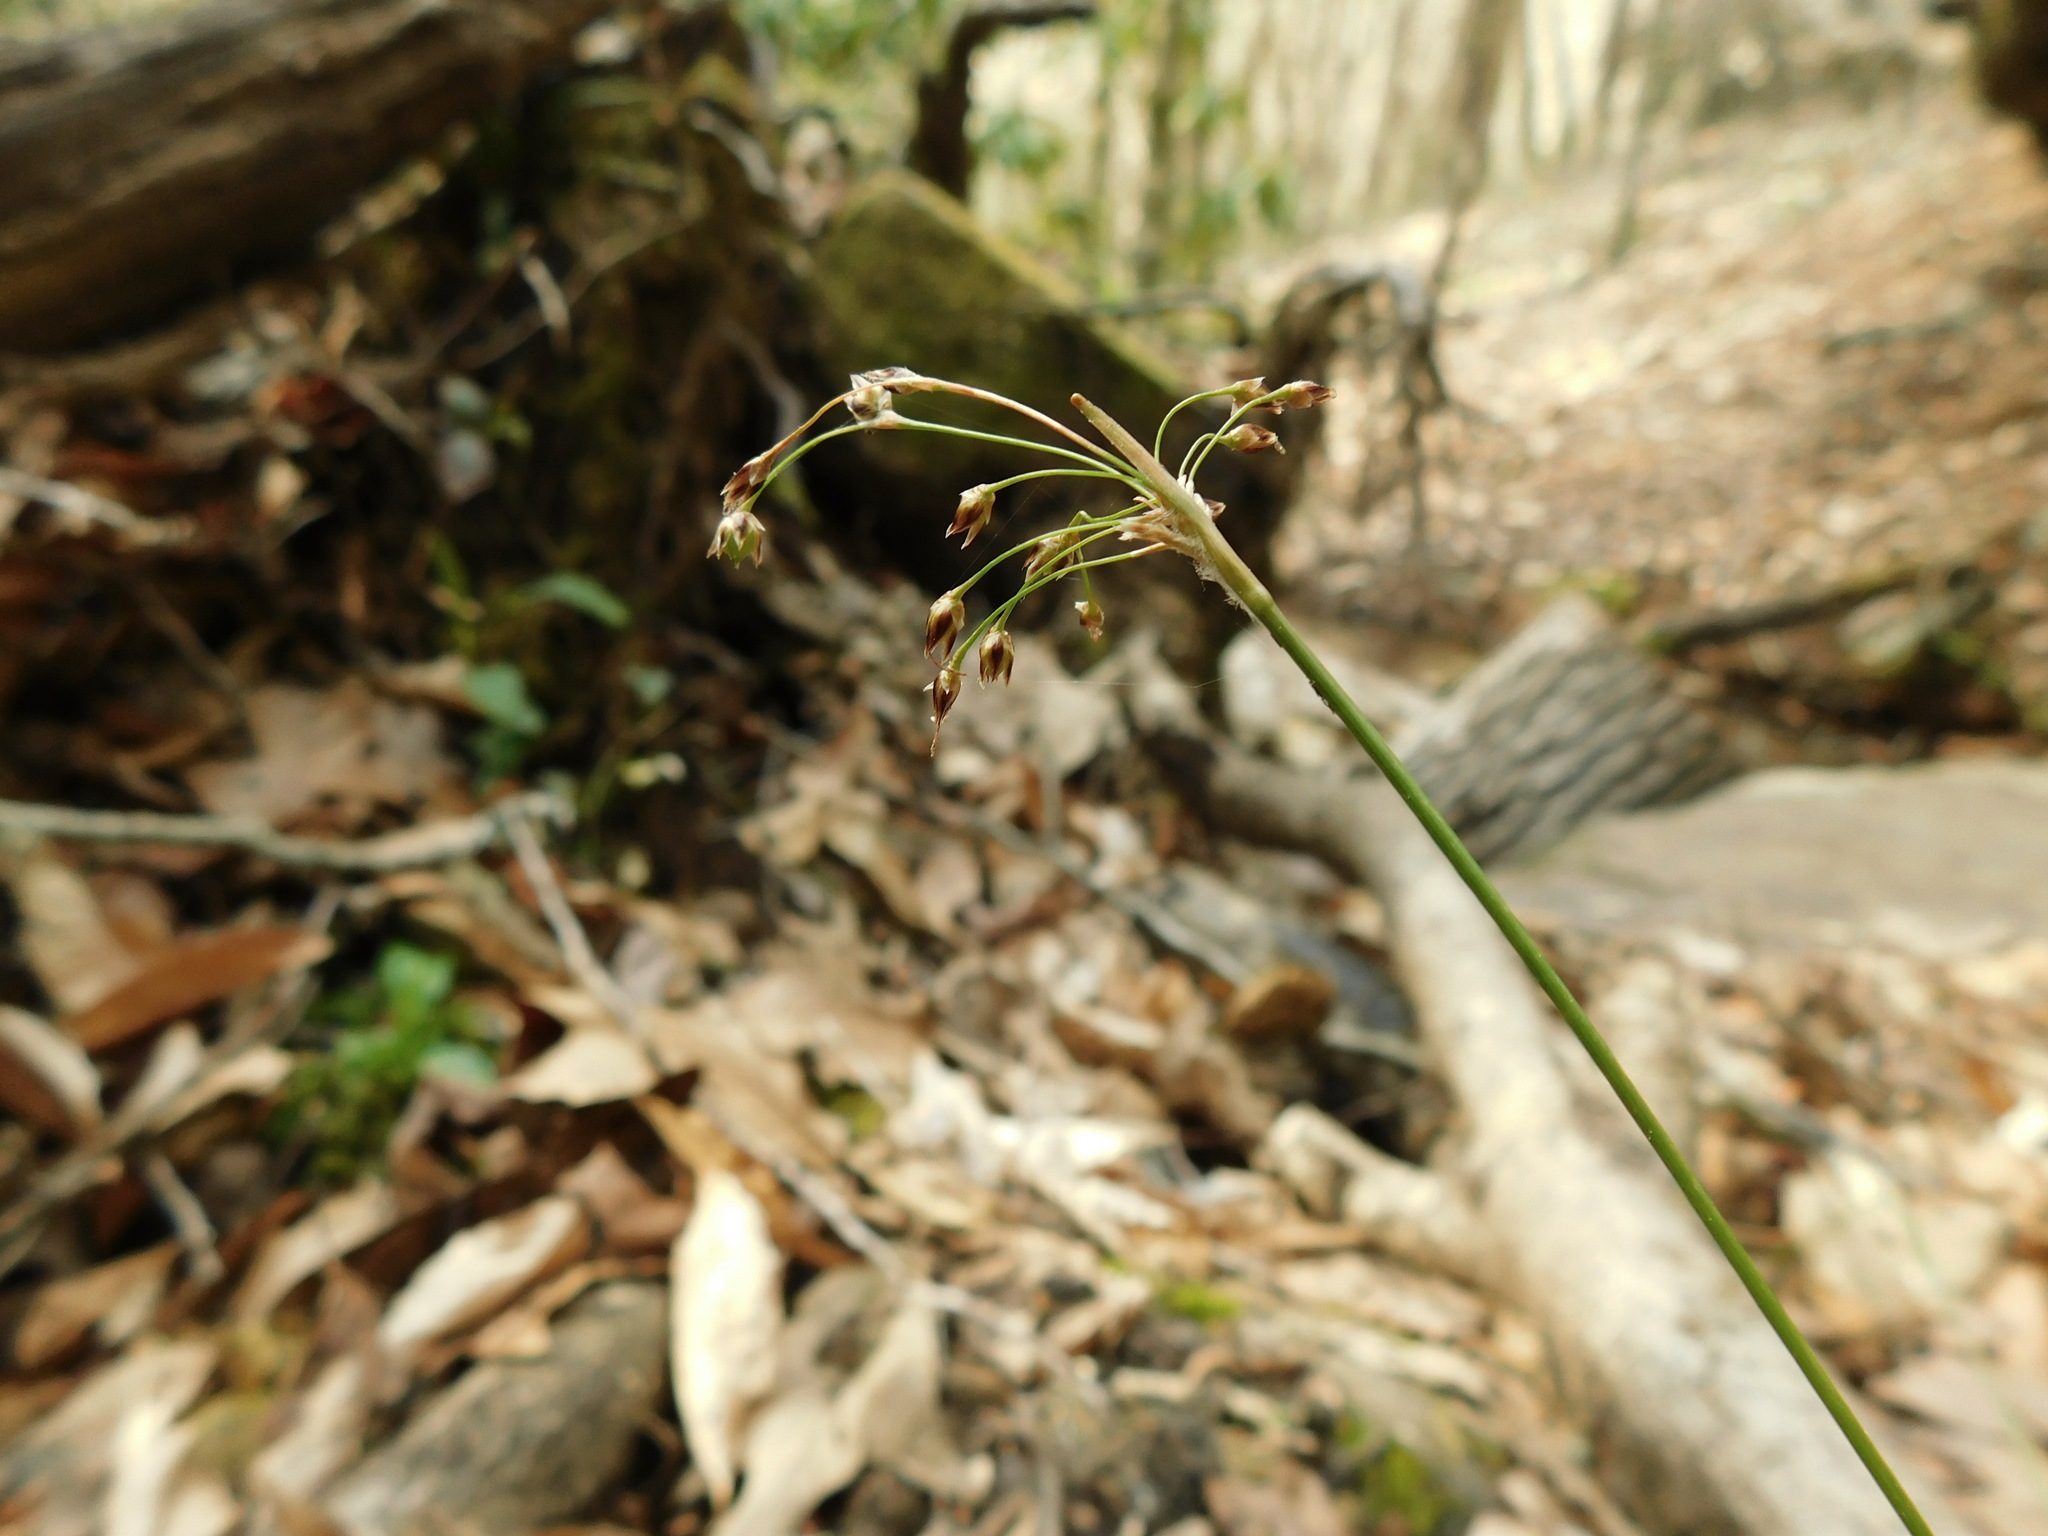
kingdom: Plantae
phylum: Tracheophyta
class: Liliopsida
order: Poales
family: Juncaceae
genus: Luzula
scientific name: Luzula acuminata
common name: Hairy woodrush
